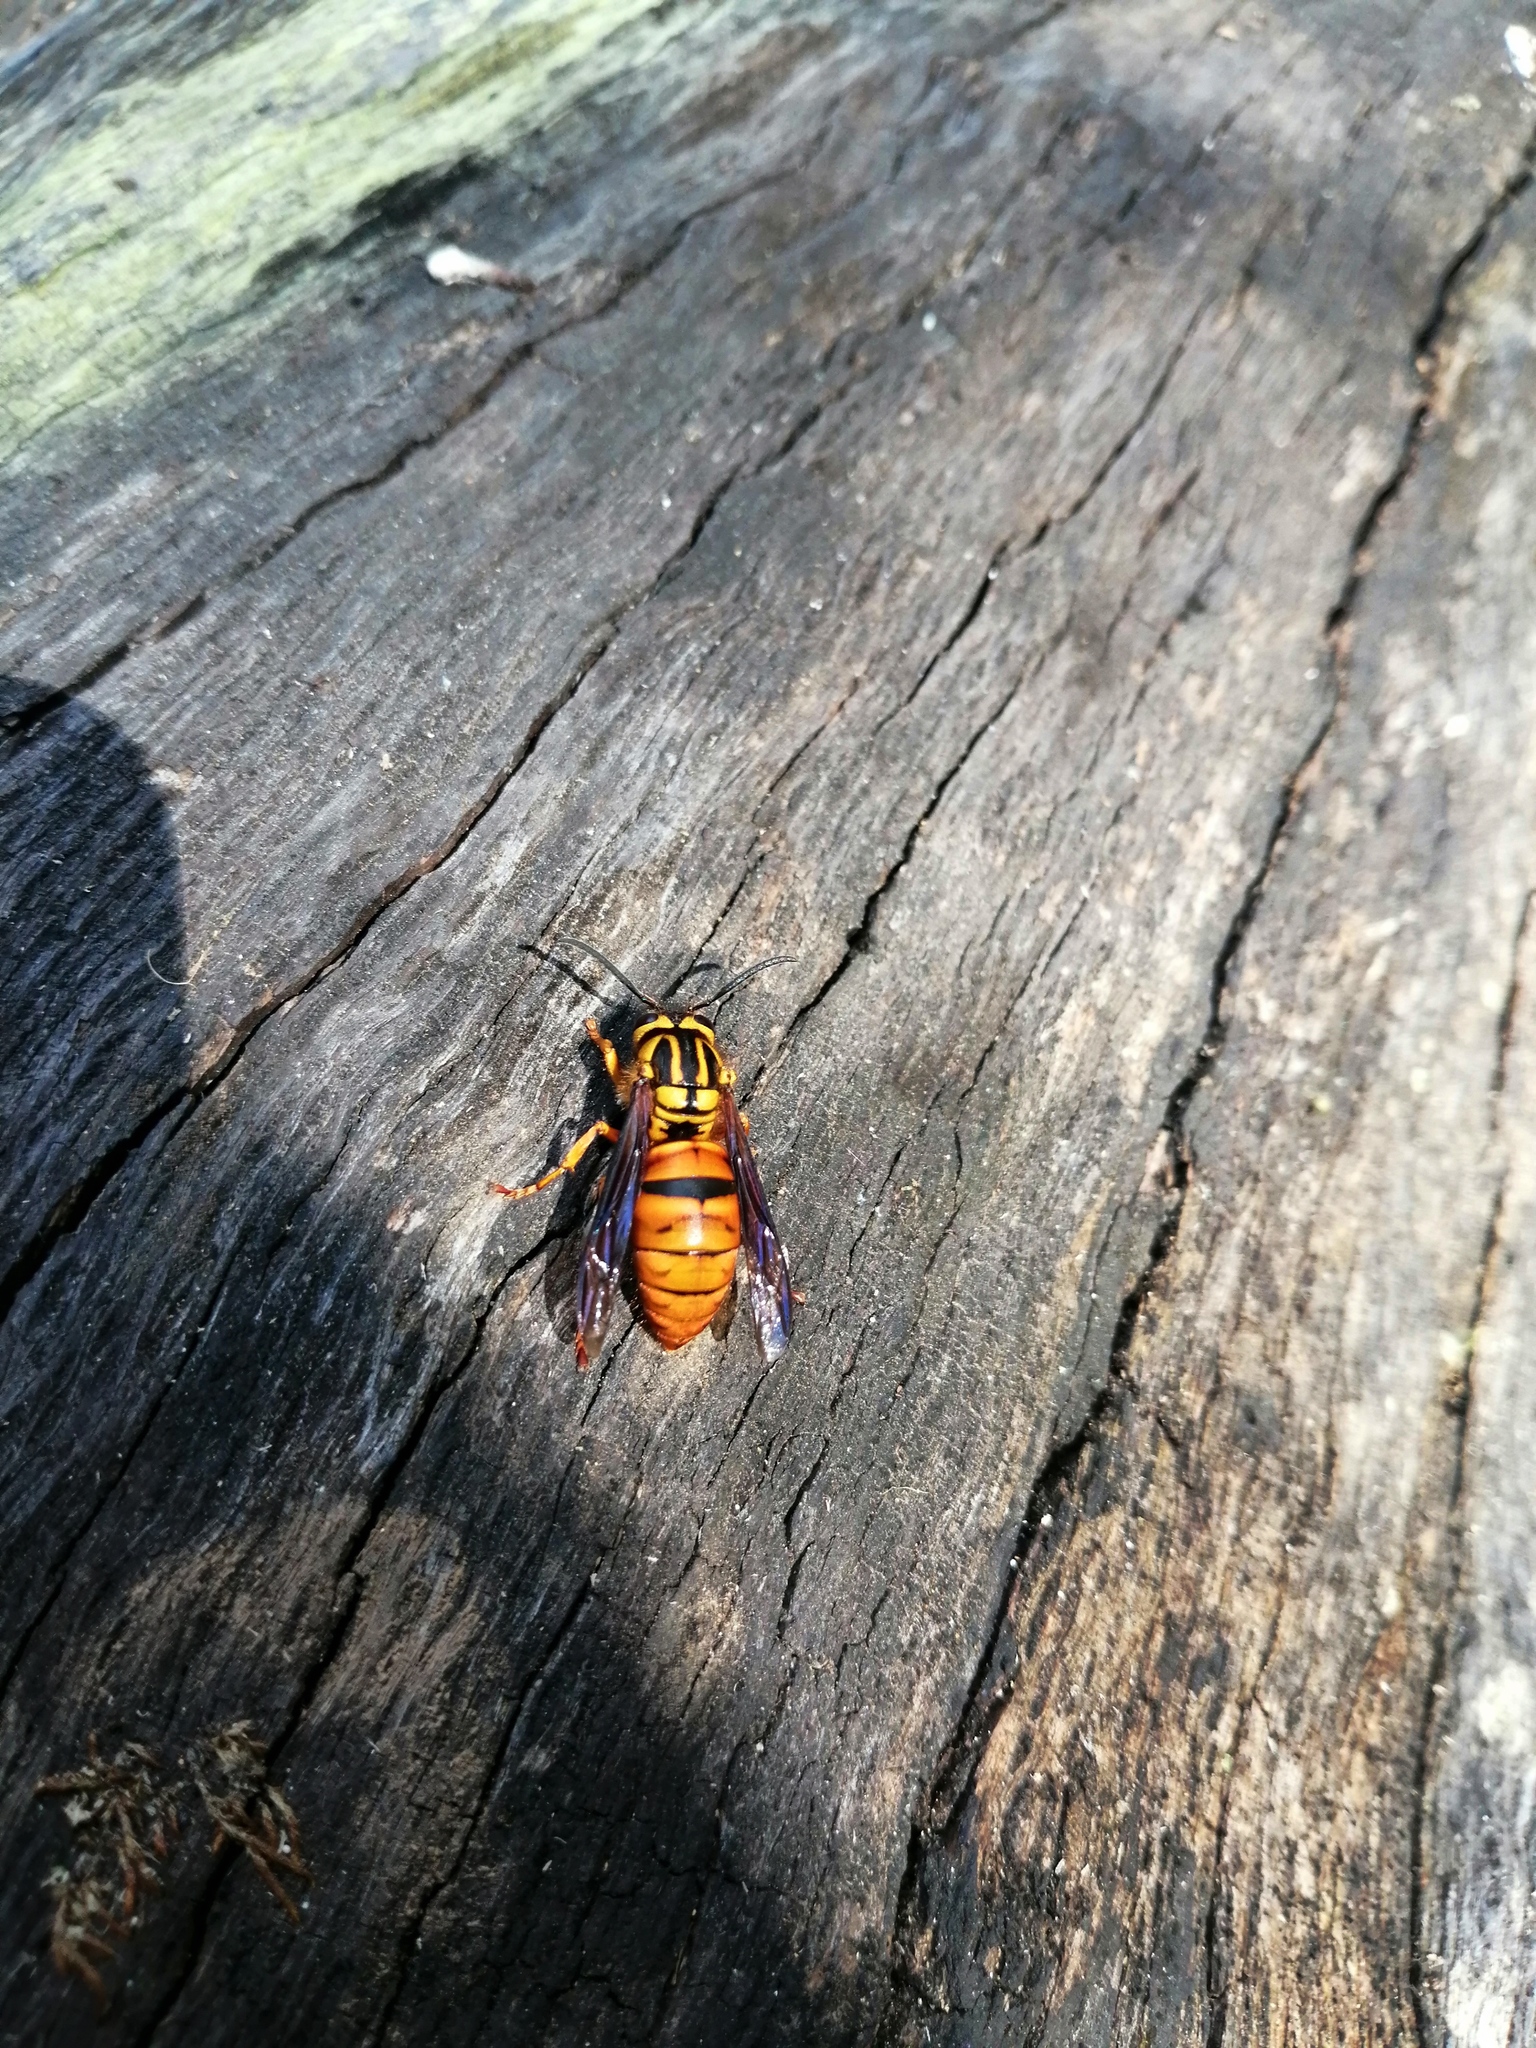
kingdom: Animalia
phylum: Arthropoda
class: Insecta
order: Hymenoptera
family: Vespidae
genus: Vespula
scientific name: Vespula squamosa
